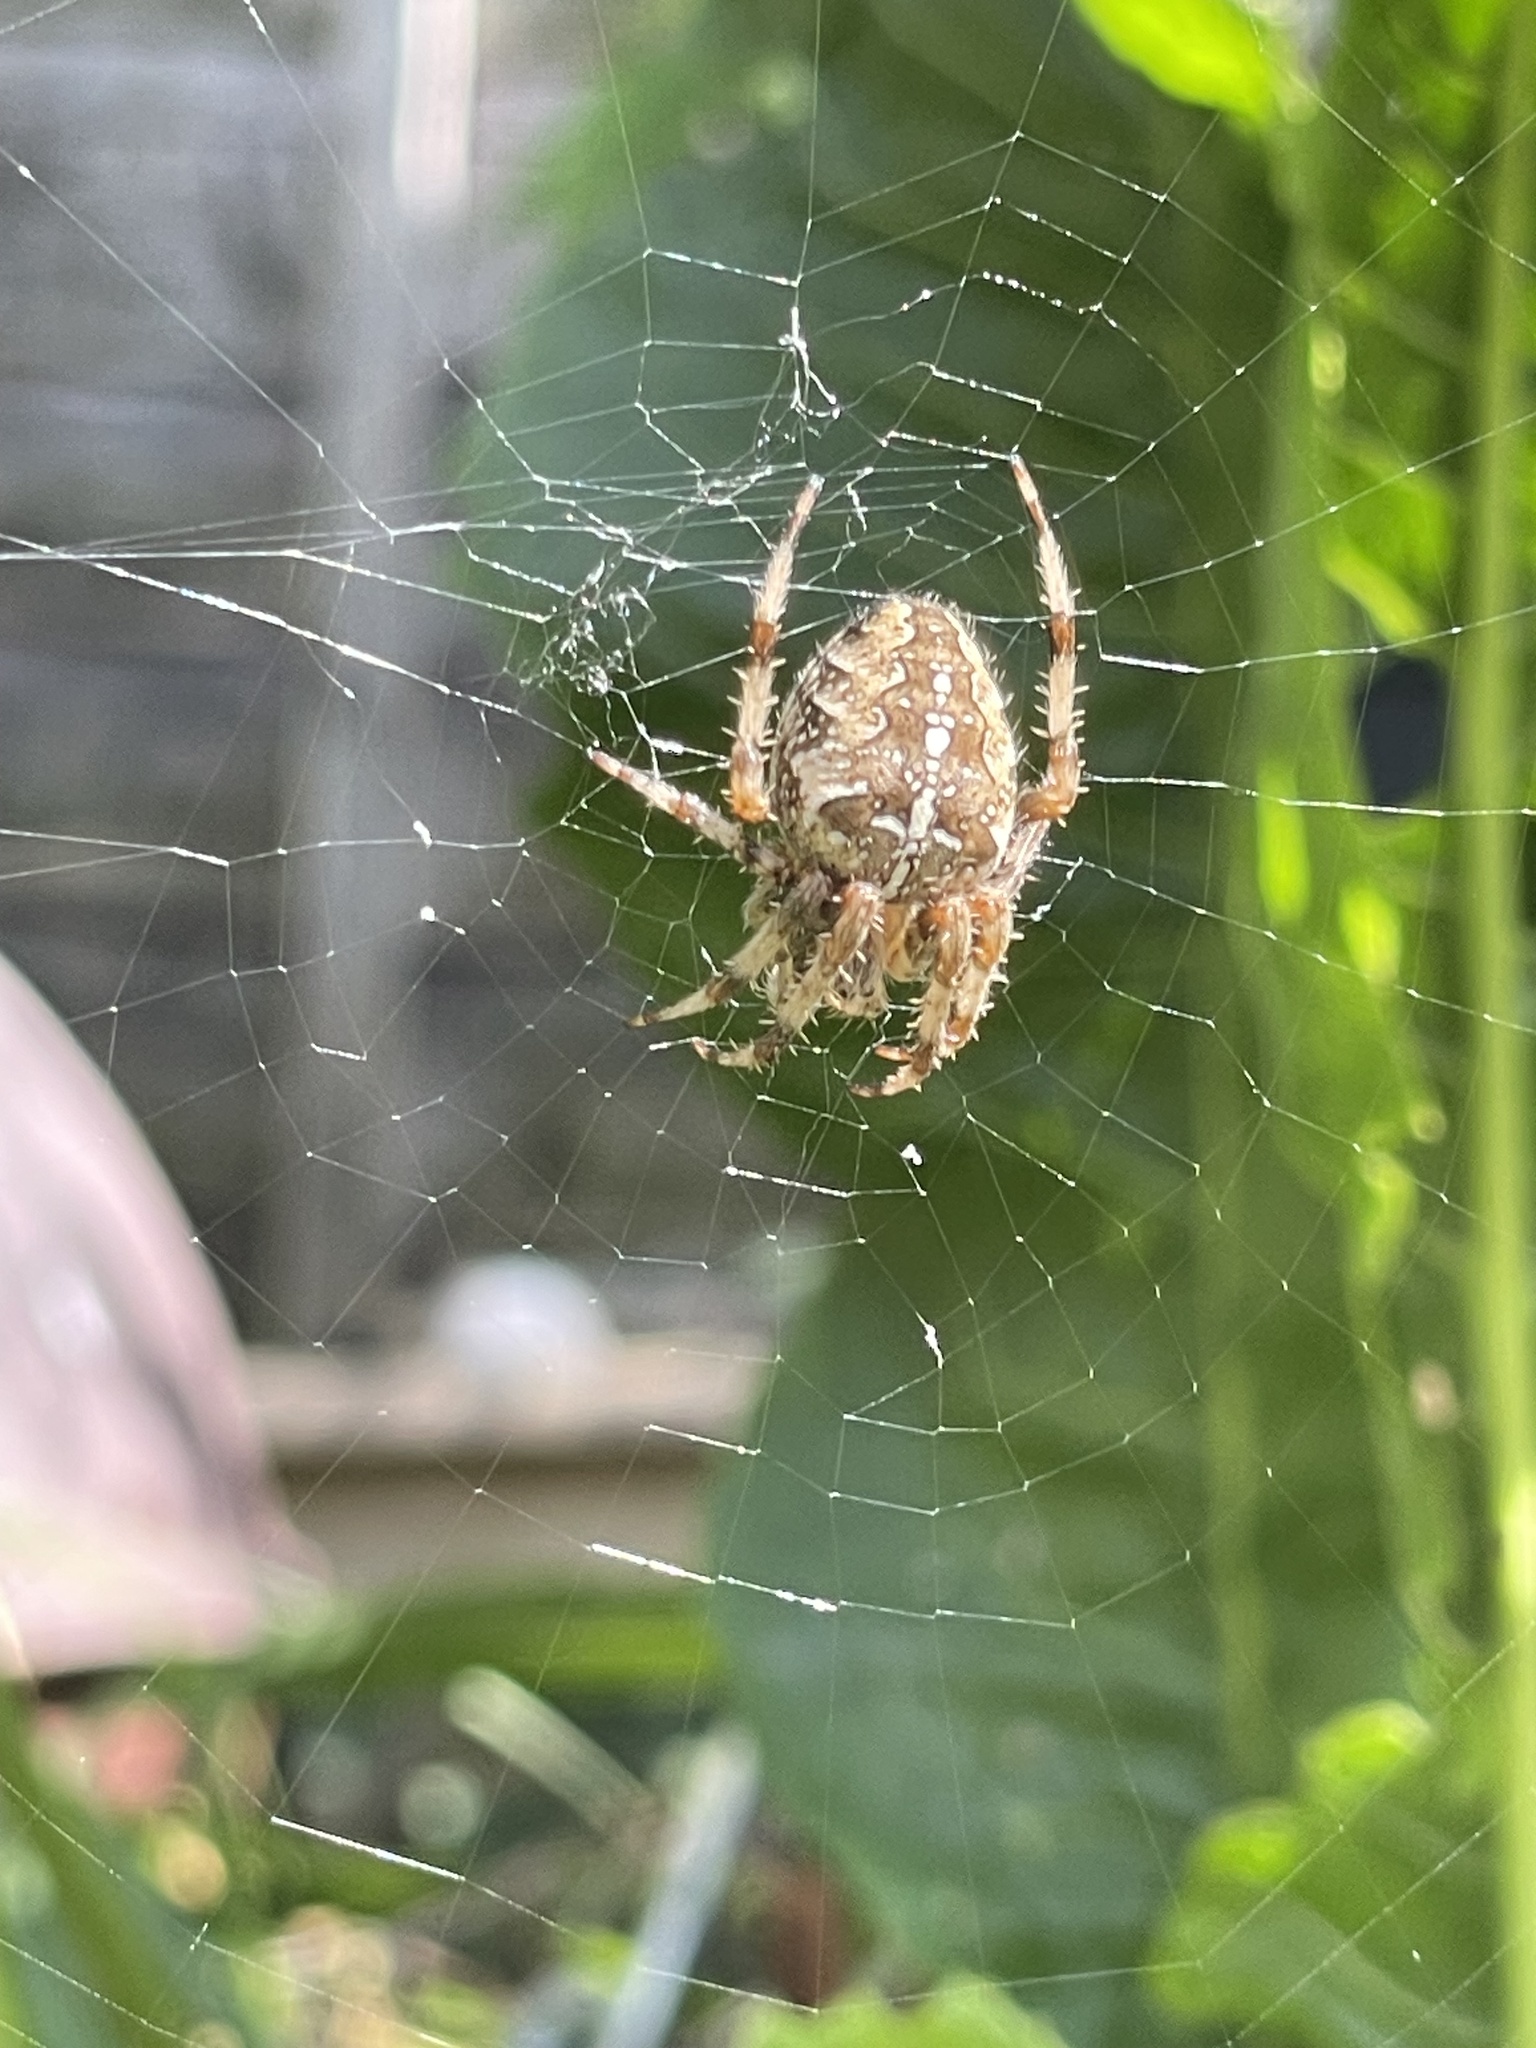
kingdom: Animalia
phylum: Arthropoda
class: Arachnida
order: Araneae
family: Araneidae
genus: Araneus
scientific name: Araneus diadematus
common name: Cross orbweaver
